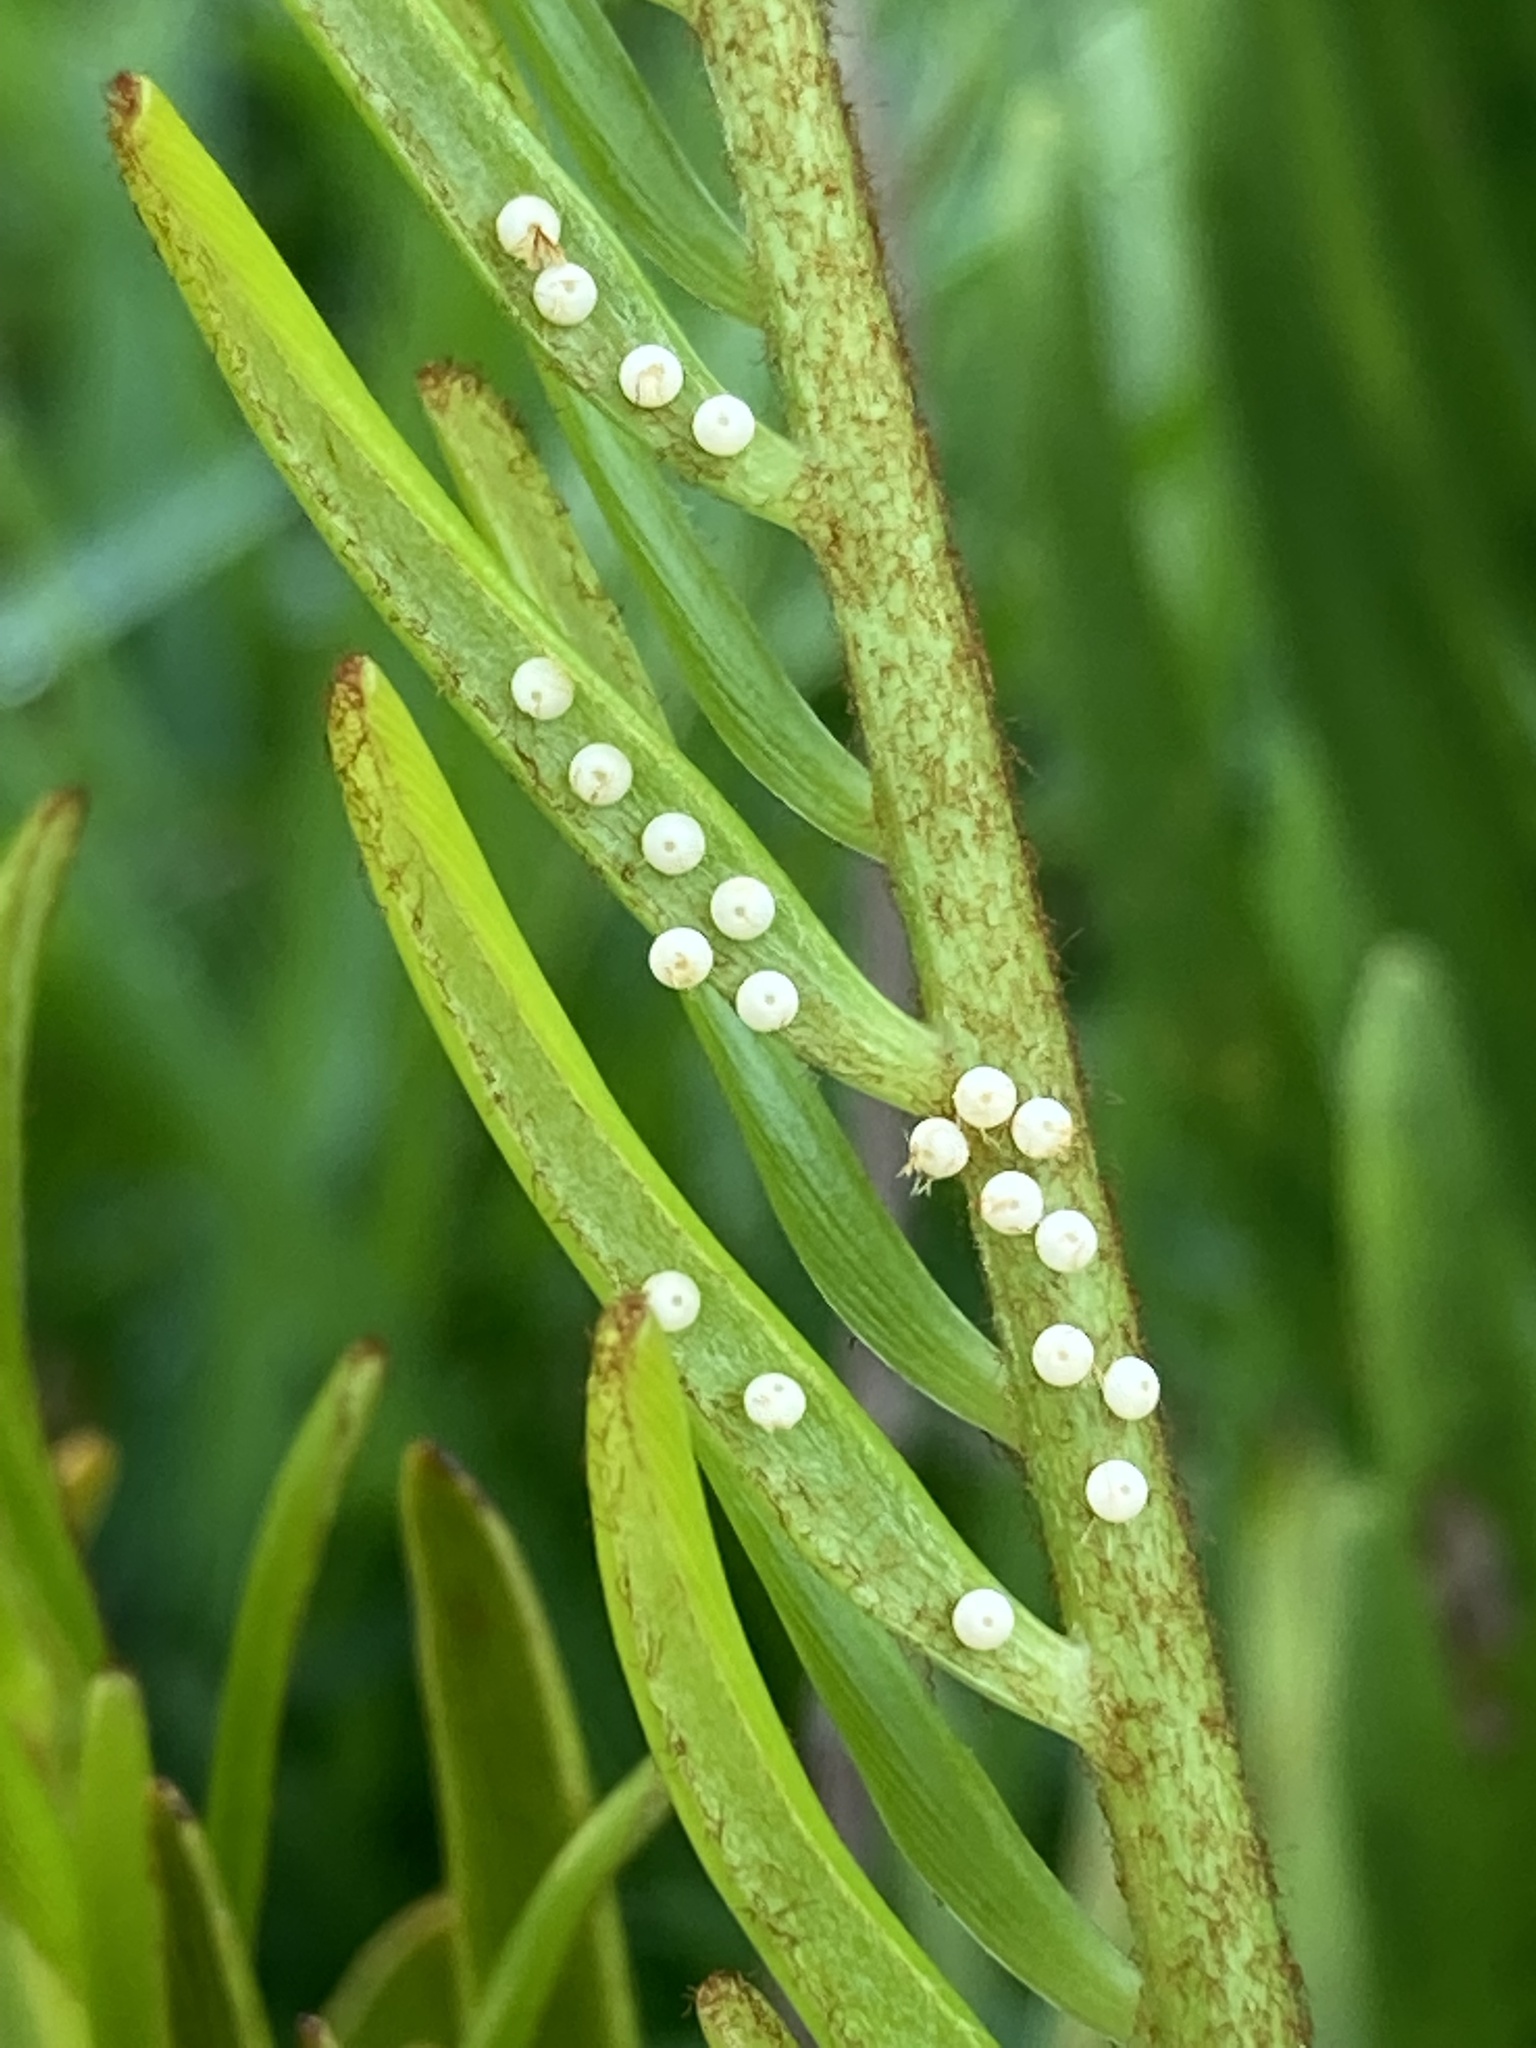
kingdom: Animalia
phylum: Arthropoda
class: Insecta
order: Lepidoptera
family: Lycaenidae
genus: Eumaeus
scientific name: Eumaeus atala
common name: Atala
